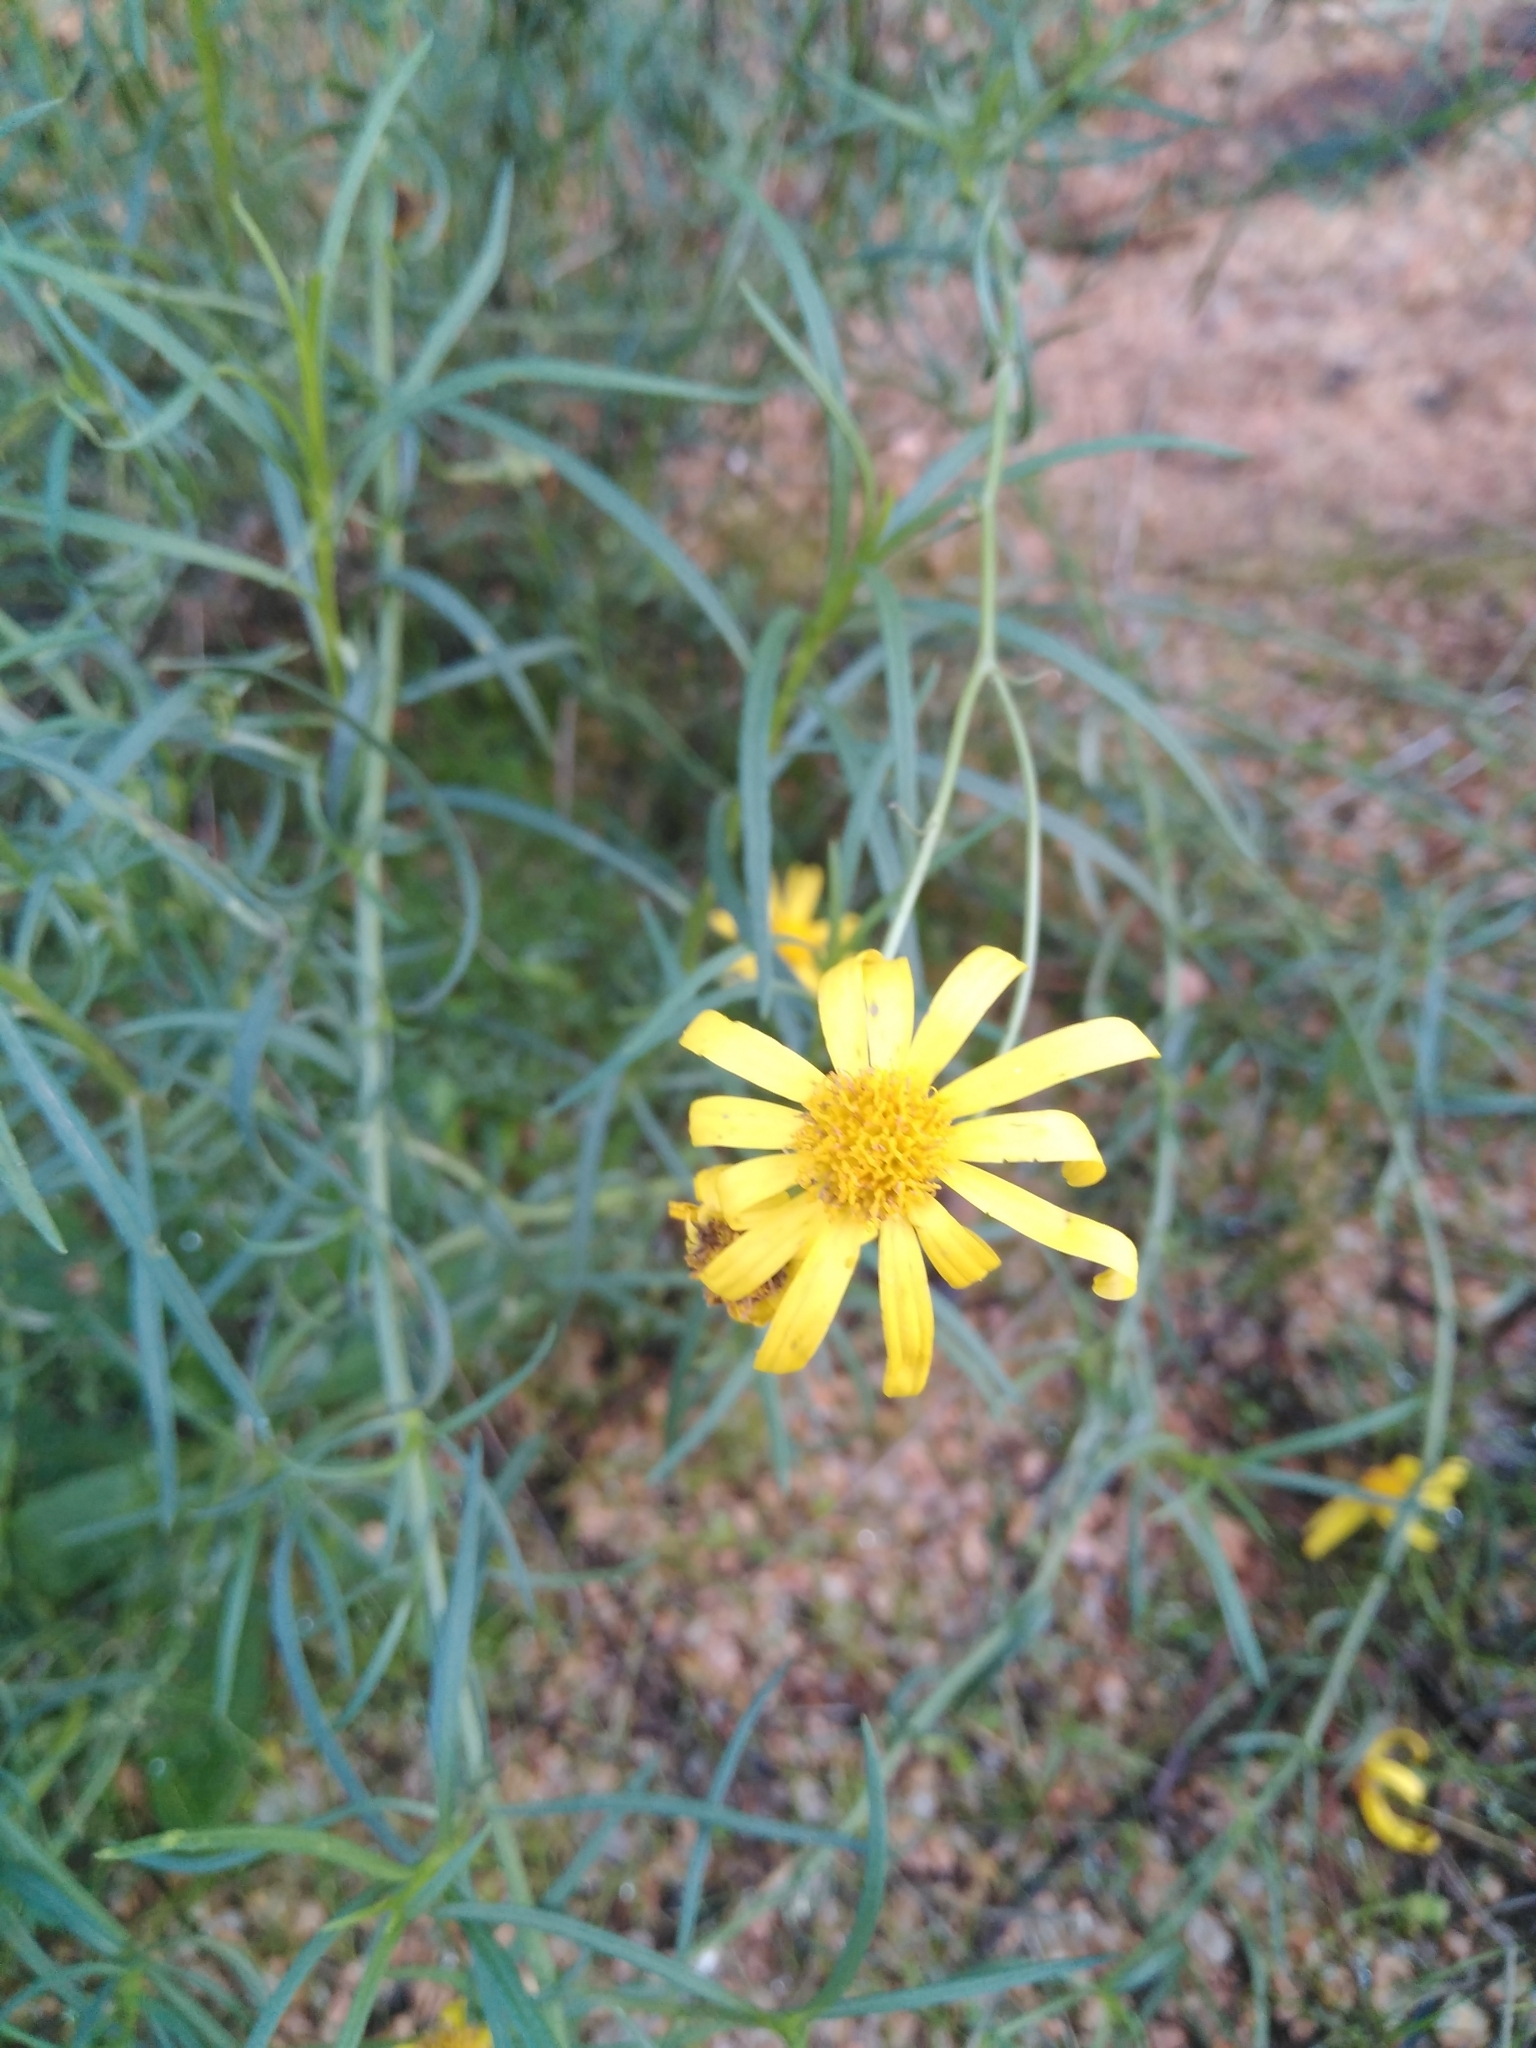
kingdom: Plantae
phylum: Tracheophyta
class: Magnoliopsida
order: Asterales
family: Asteraceae
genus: Senecio
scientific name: Senecio inaequidens
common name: Narrow-leaved ragwort
